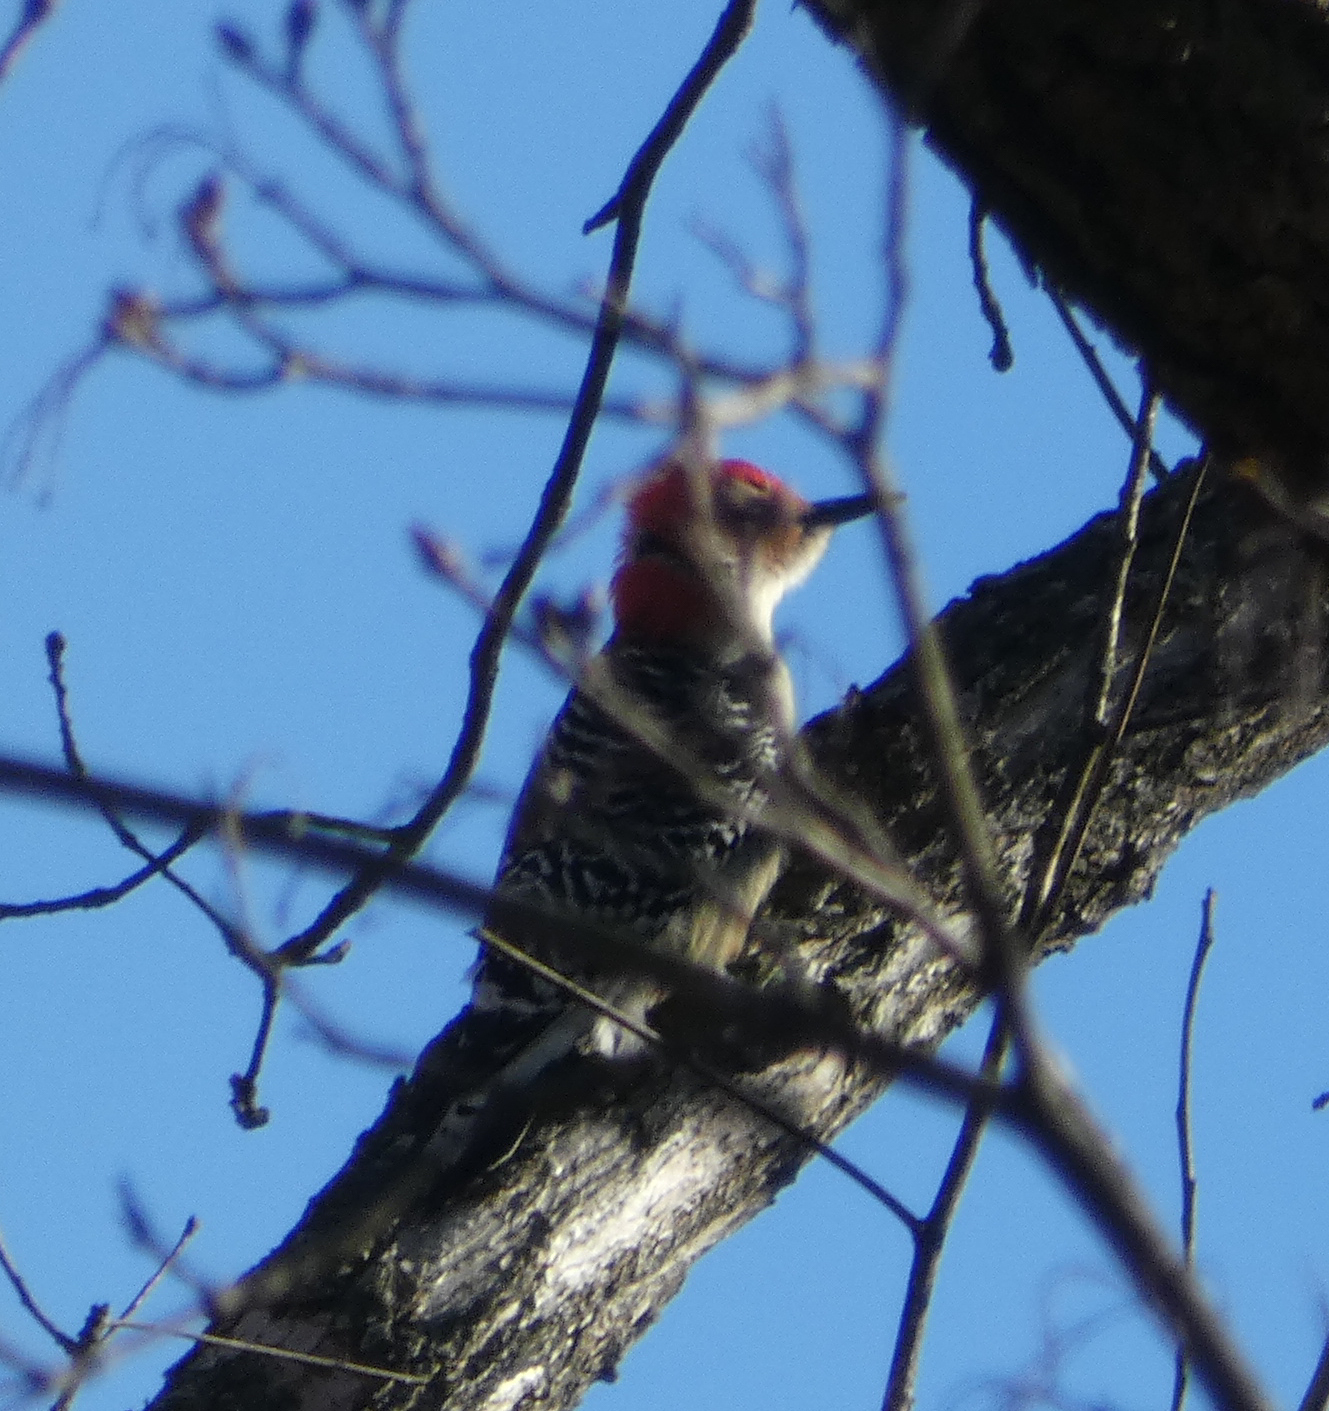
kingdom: Animalia
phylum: Chordata
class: Aves
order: Piciformes
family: Picidae
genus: Melanerpes
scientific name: Melanerpes carolinus
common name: Red-bellied woodpecker
